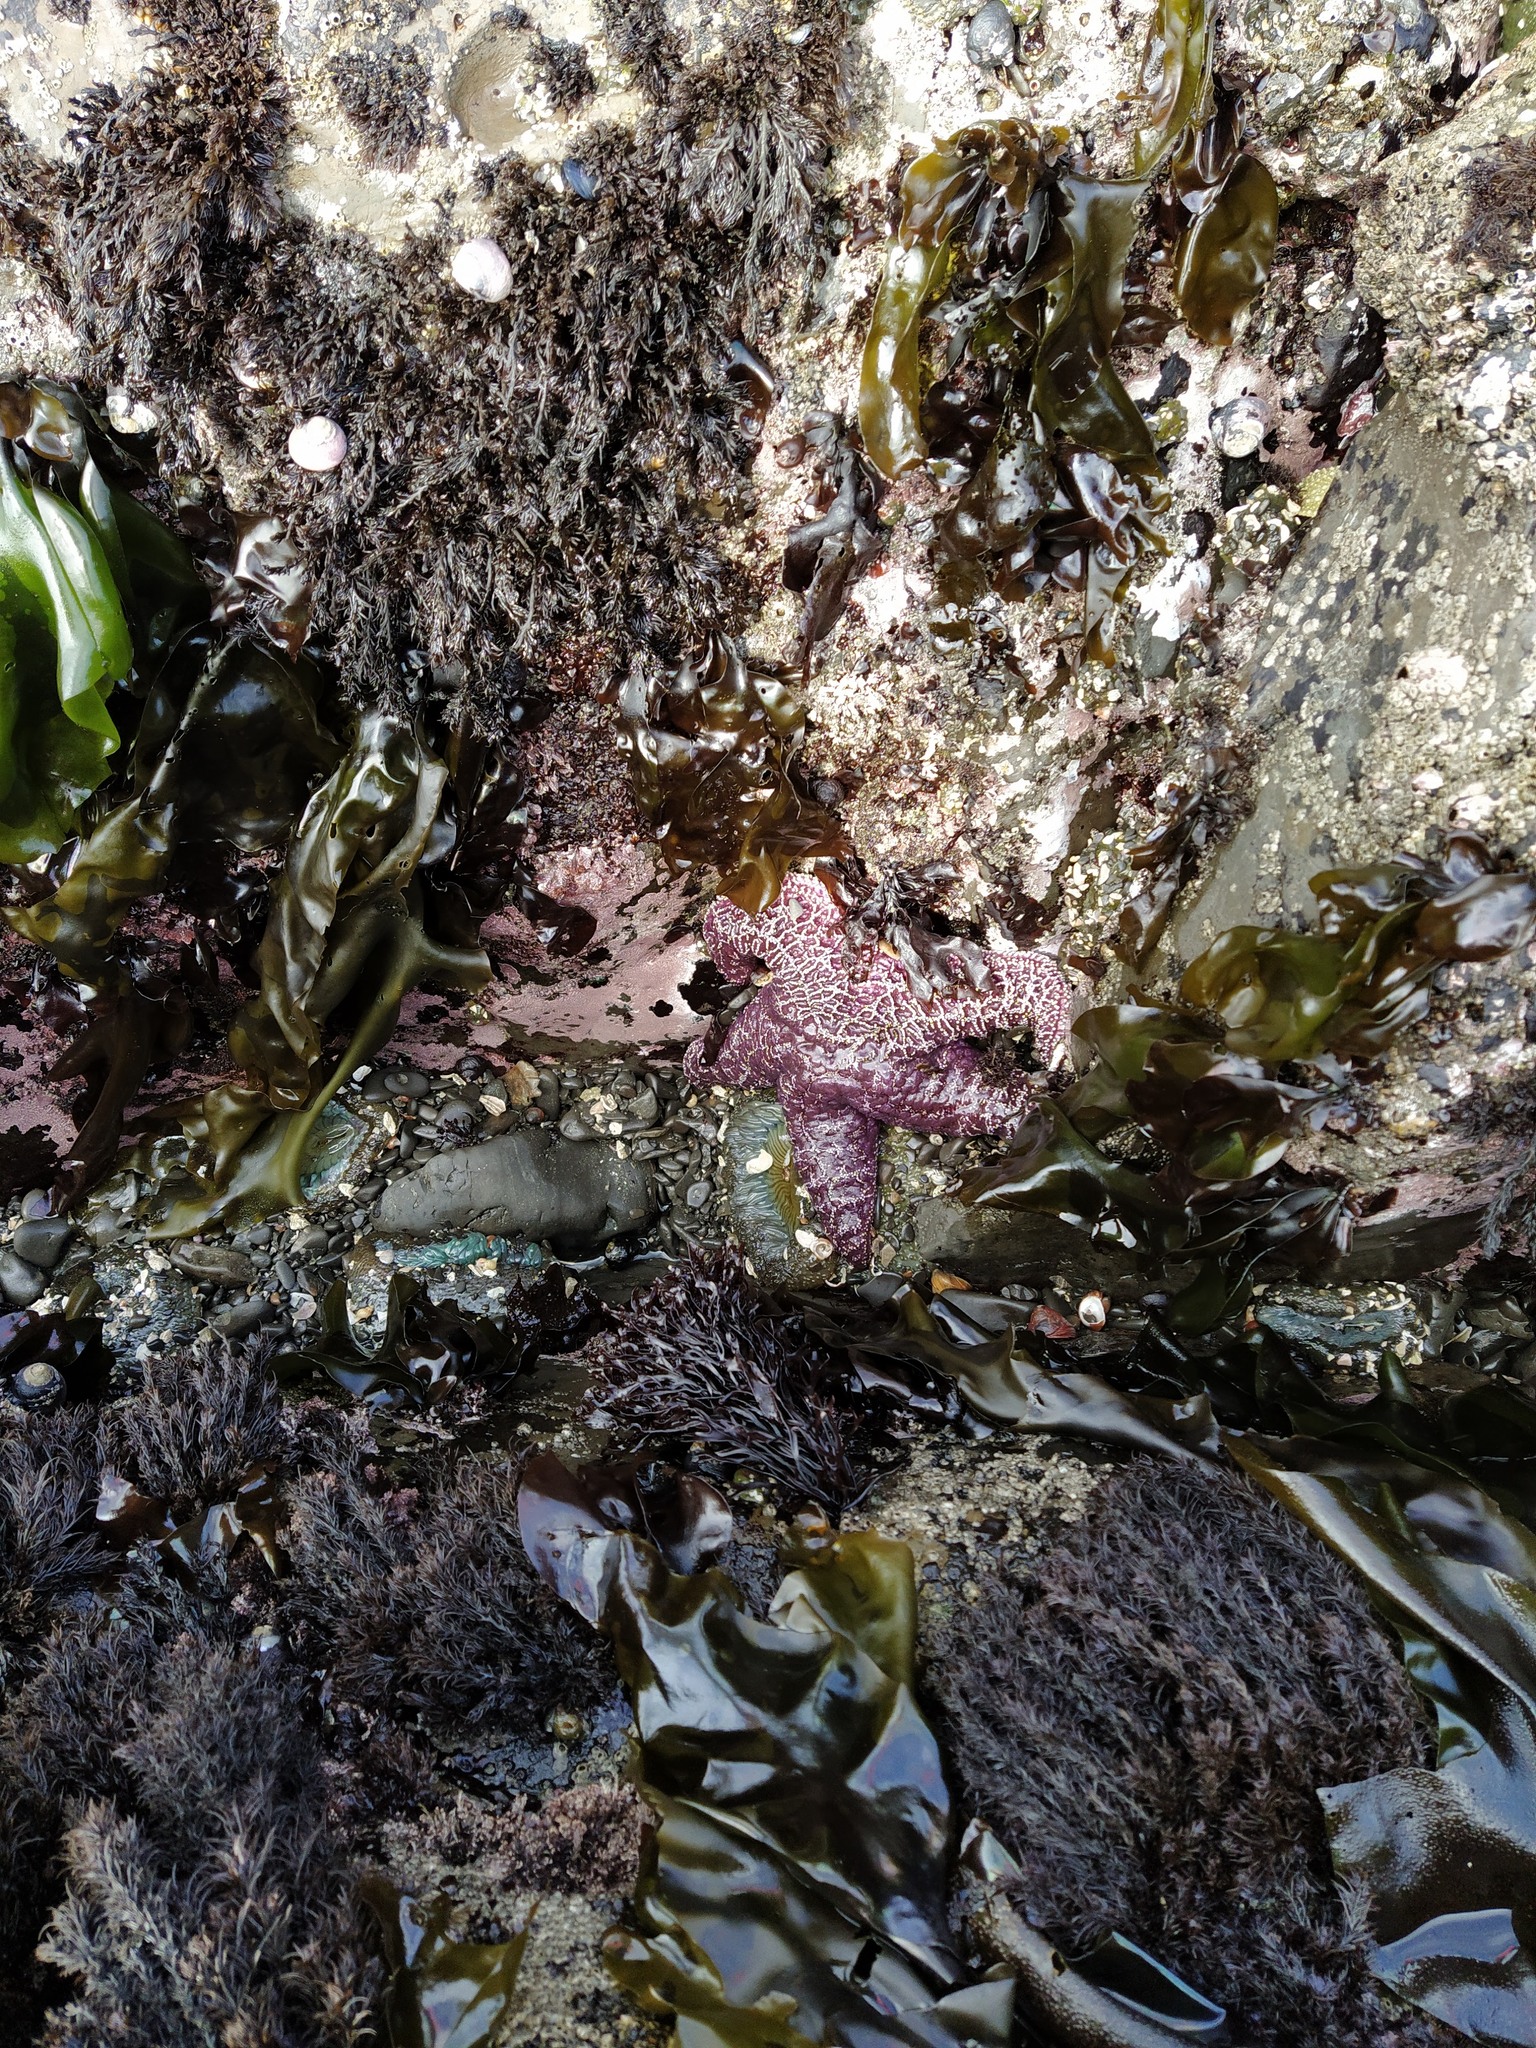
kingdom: Animalia
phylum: Echinodermata
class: Asteroidea
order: Forcipulatida
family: Asteriidae
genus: Pisaster
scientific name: Pisaster ochraceus
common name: Ochre stars
